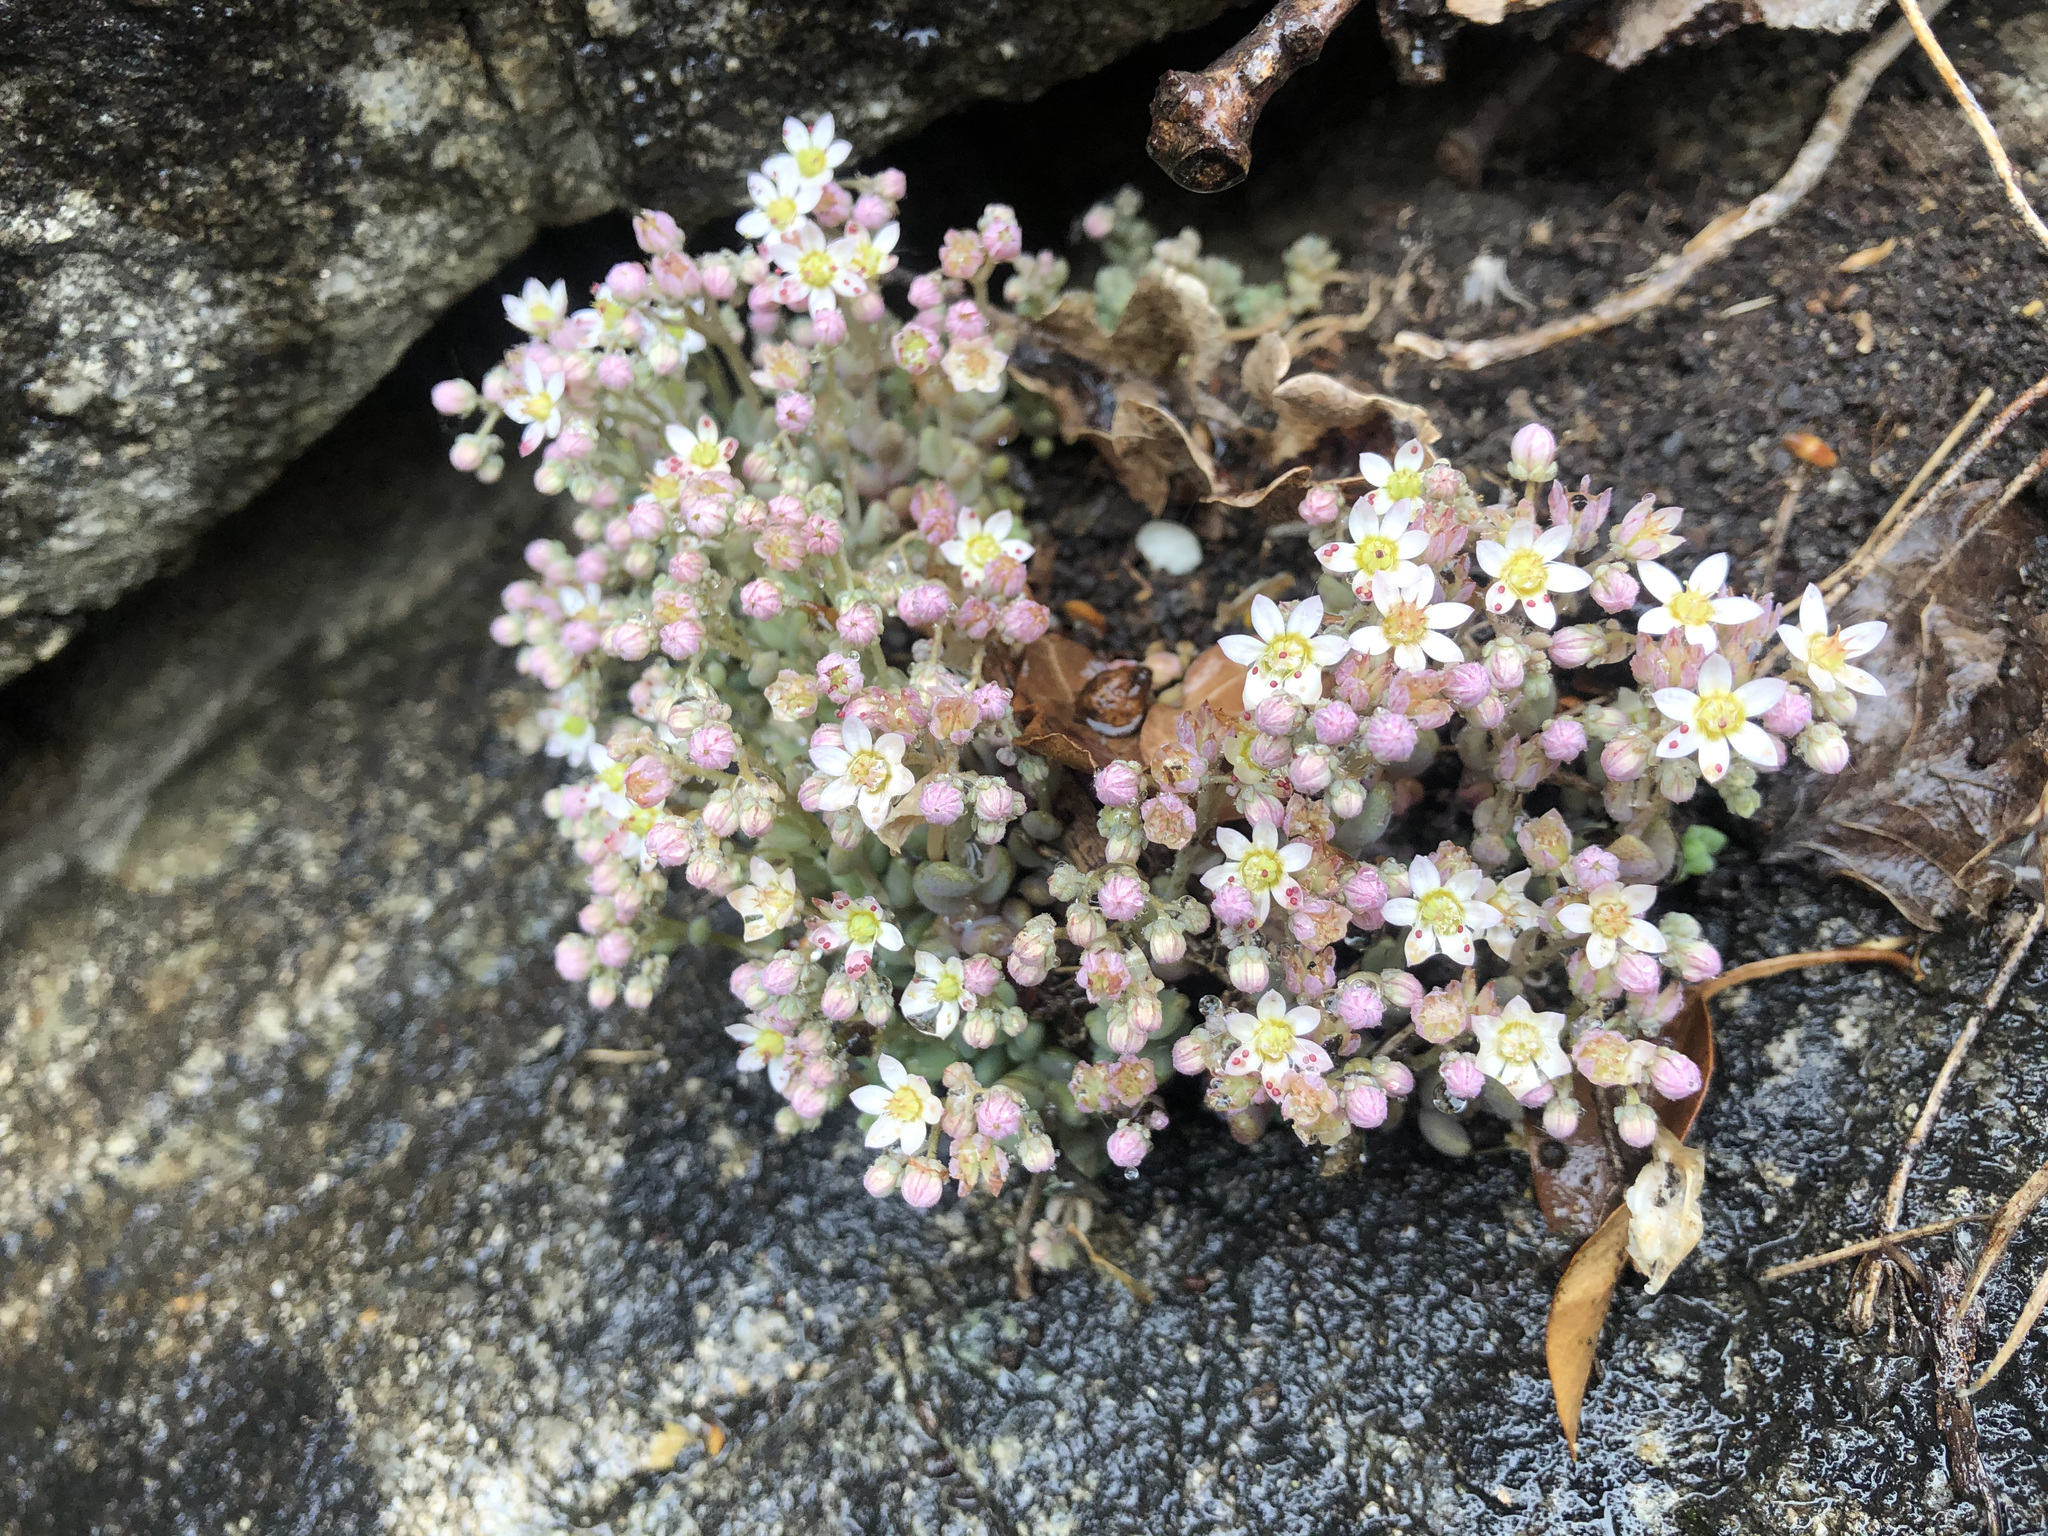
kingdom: Plantae
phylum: Tracheophyta
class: Magnoliopsida
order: Saxifragales
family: Crassulaceae
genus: Sedum
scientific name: Sedum dasyphyllum
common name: Thick-leaf stonecrop
